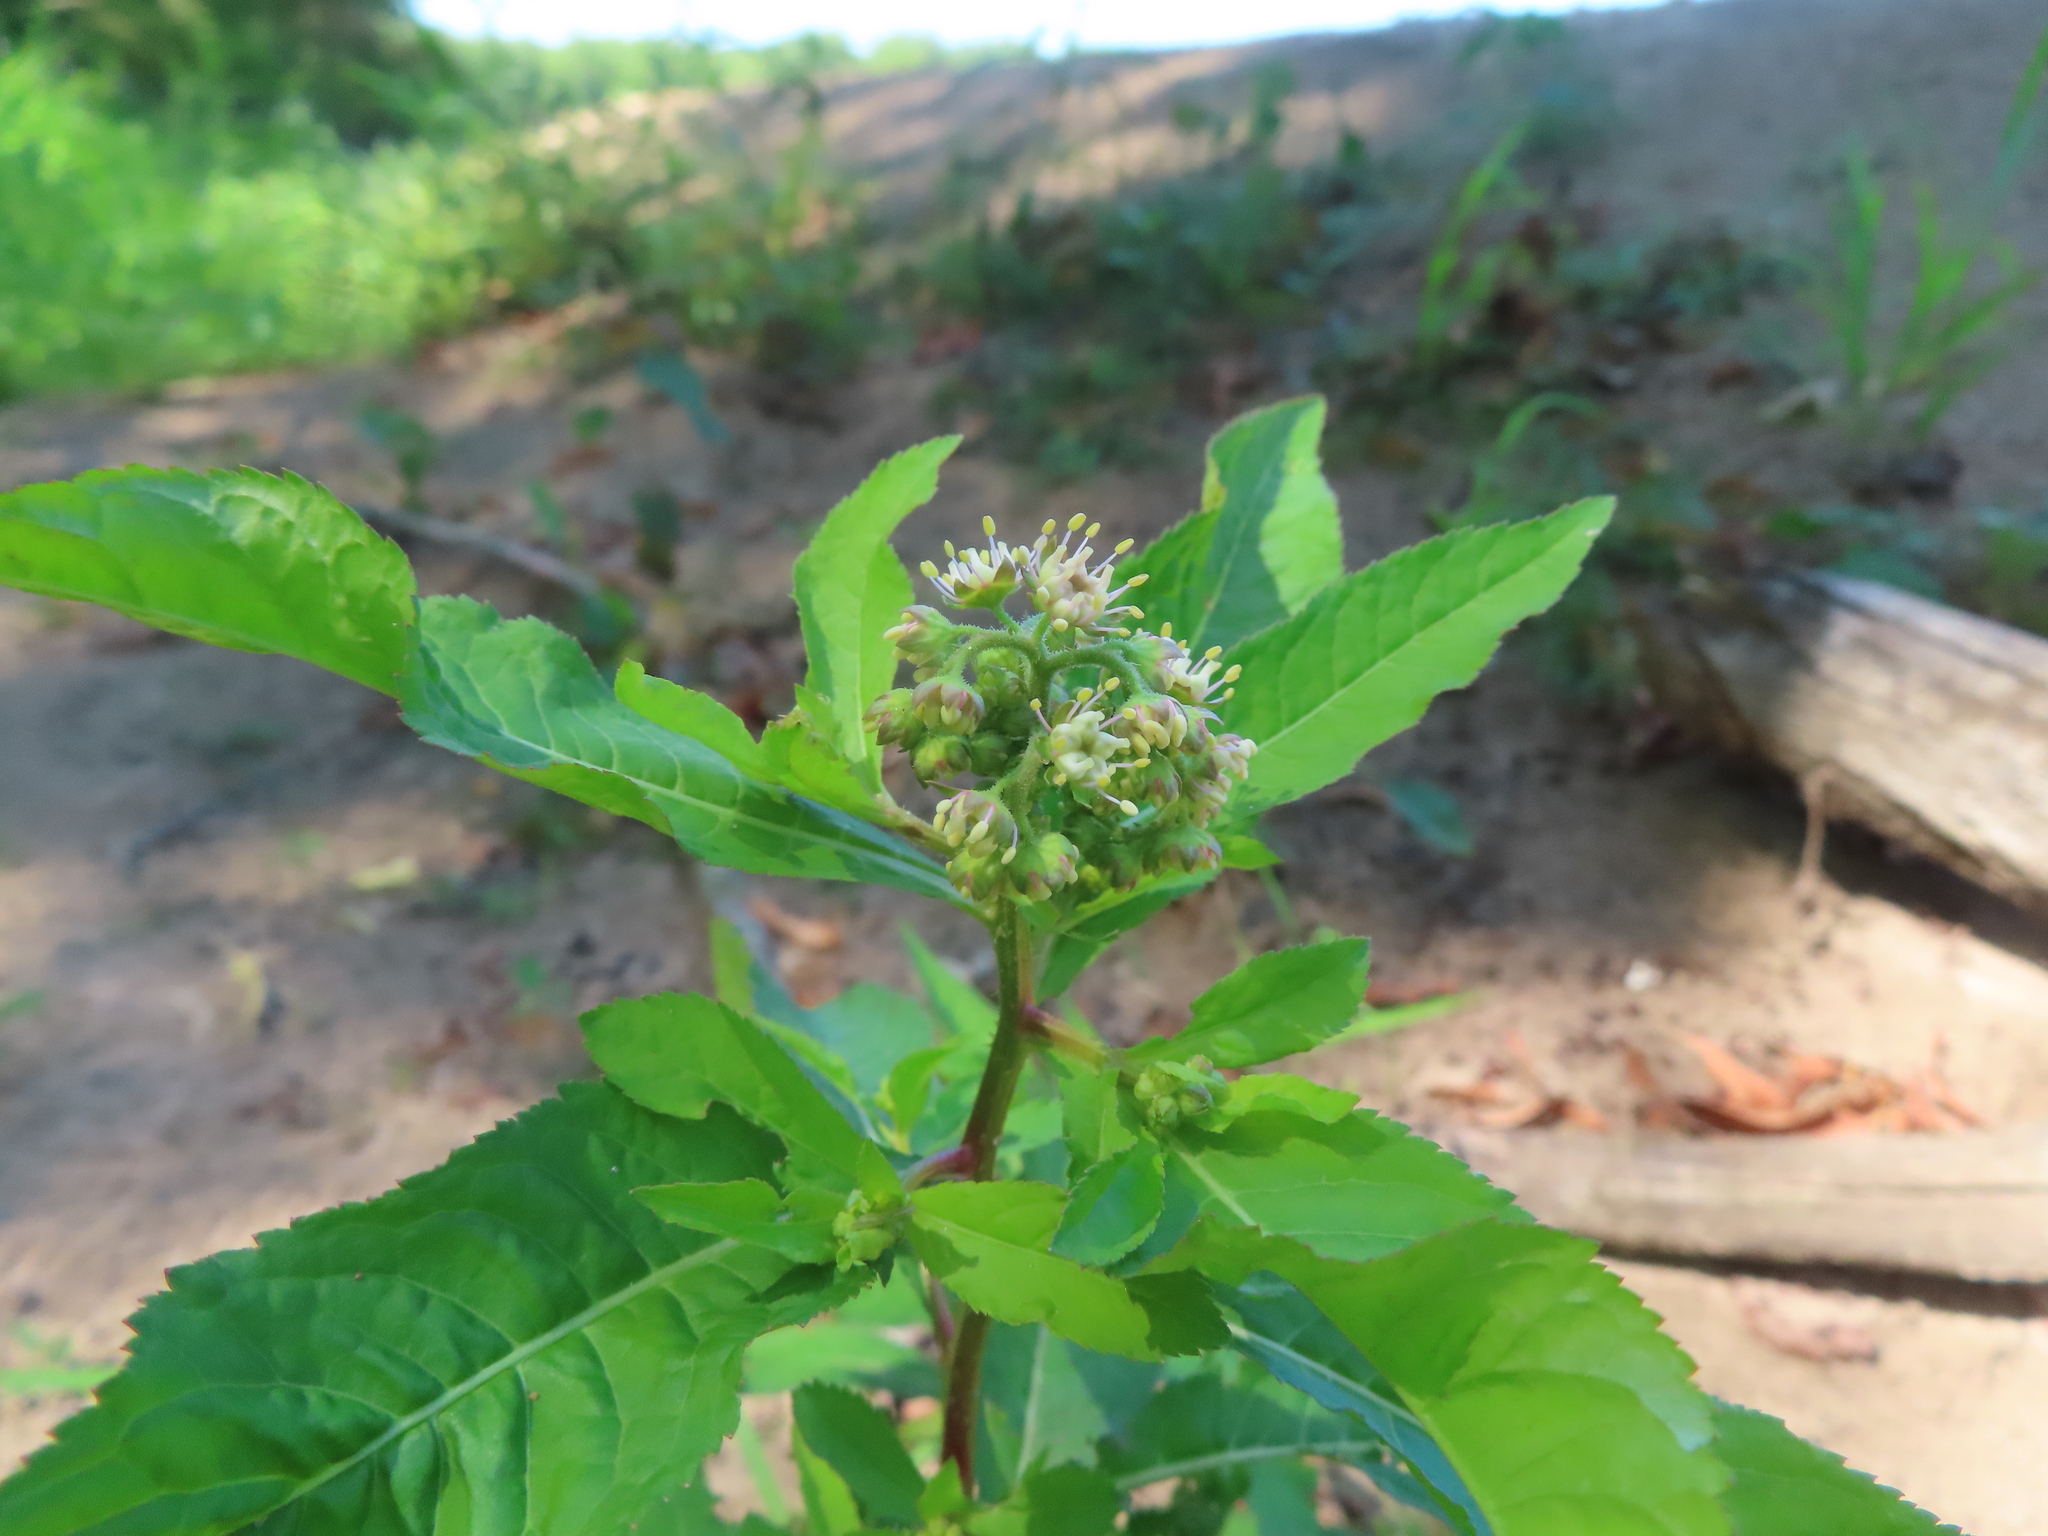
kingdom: Plantae
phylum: Tracheophyta
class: Magnoliopsida
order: Saxifragales
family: Penthoraceae
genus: Penthorum
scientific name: Penthorum sedoides
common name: Ditch stonecrop
